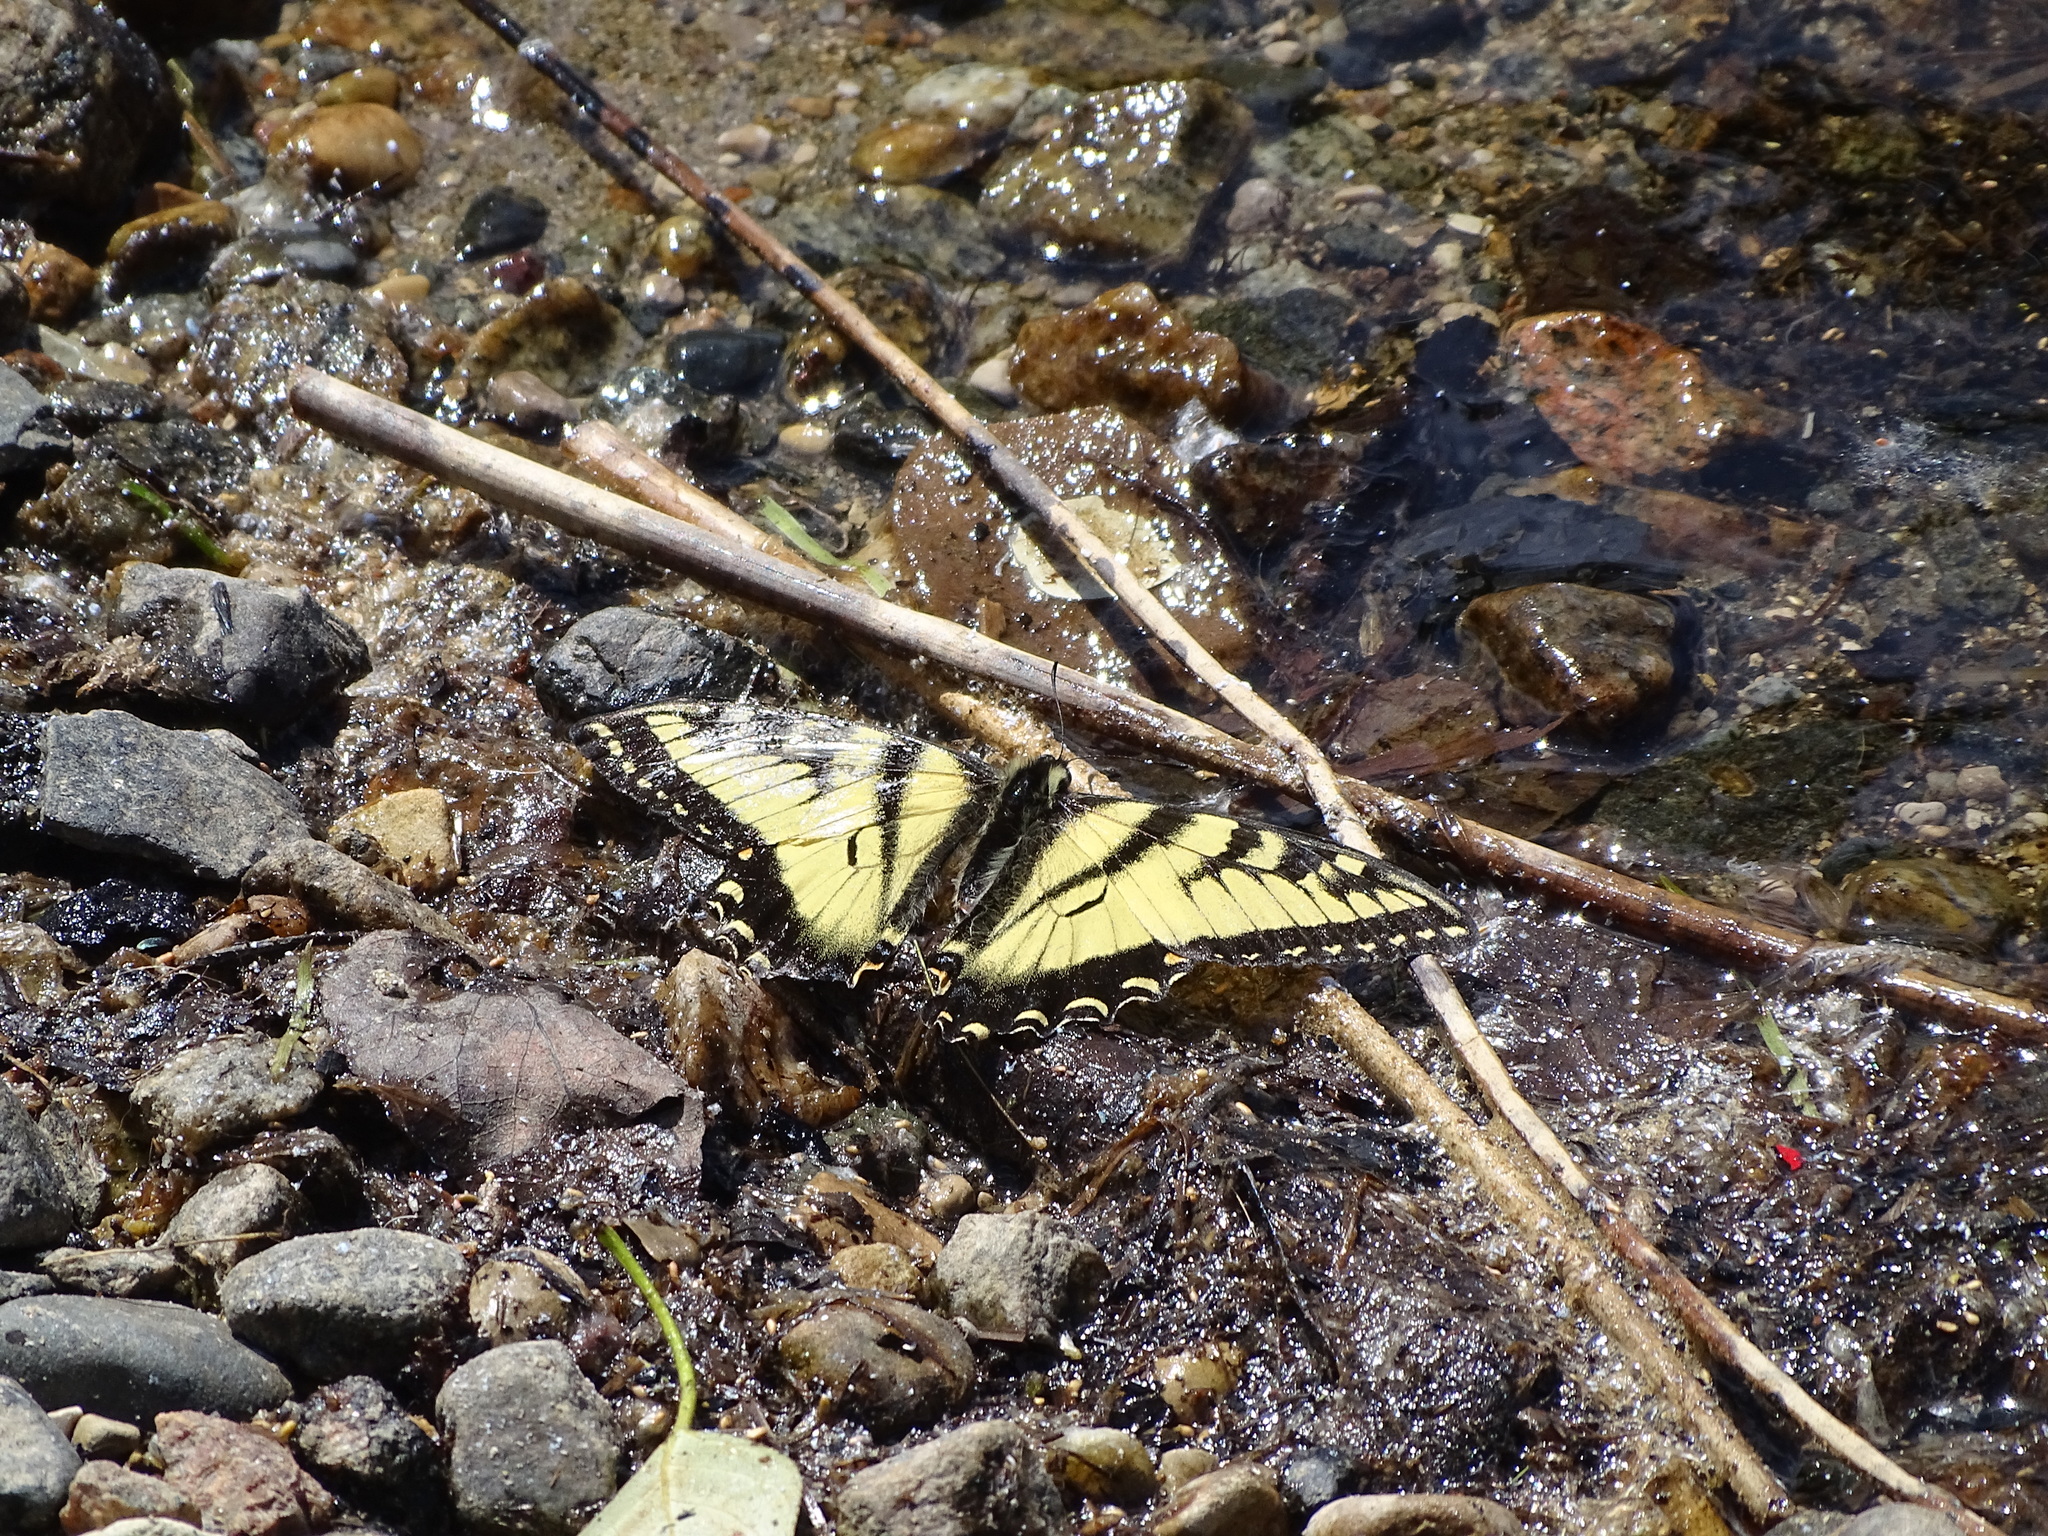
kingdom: Animalia
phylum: Arthropoda
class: Insecta
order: Lepidoptera
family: Papilionidae
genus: Papilio
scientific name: Papilio canadensis
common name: Canadian tiger swallowtail
